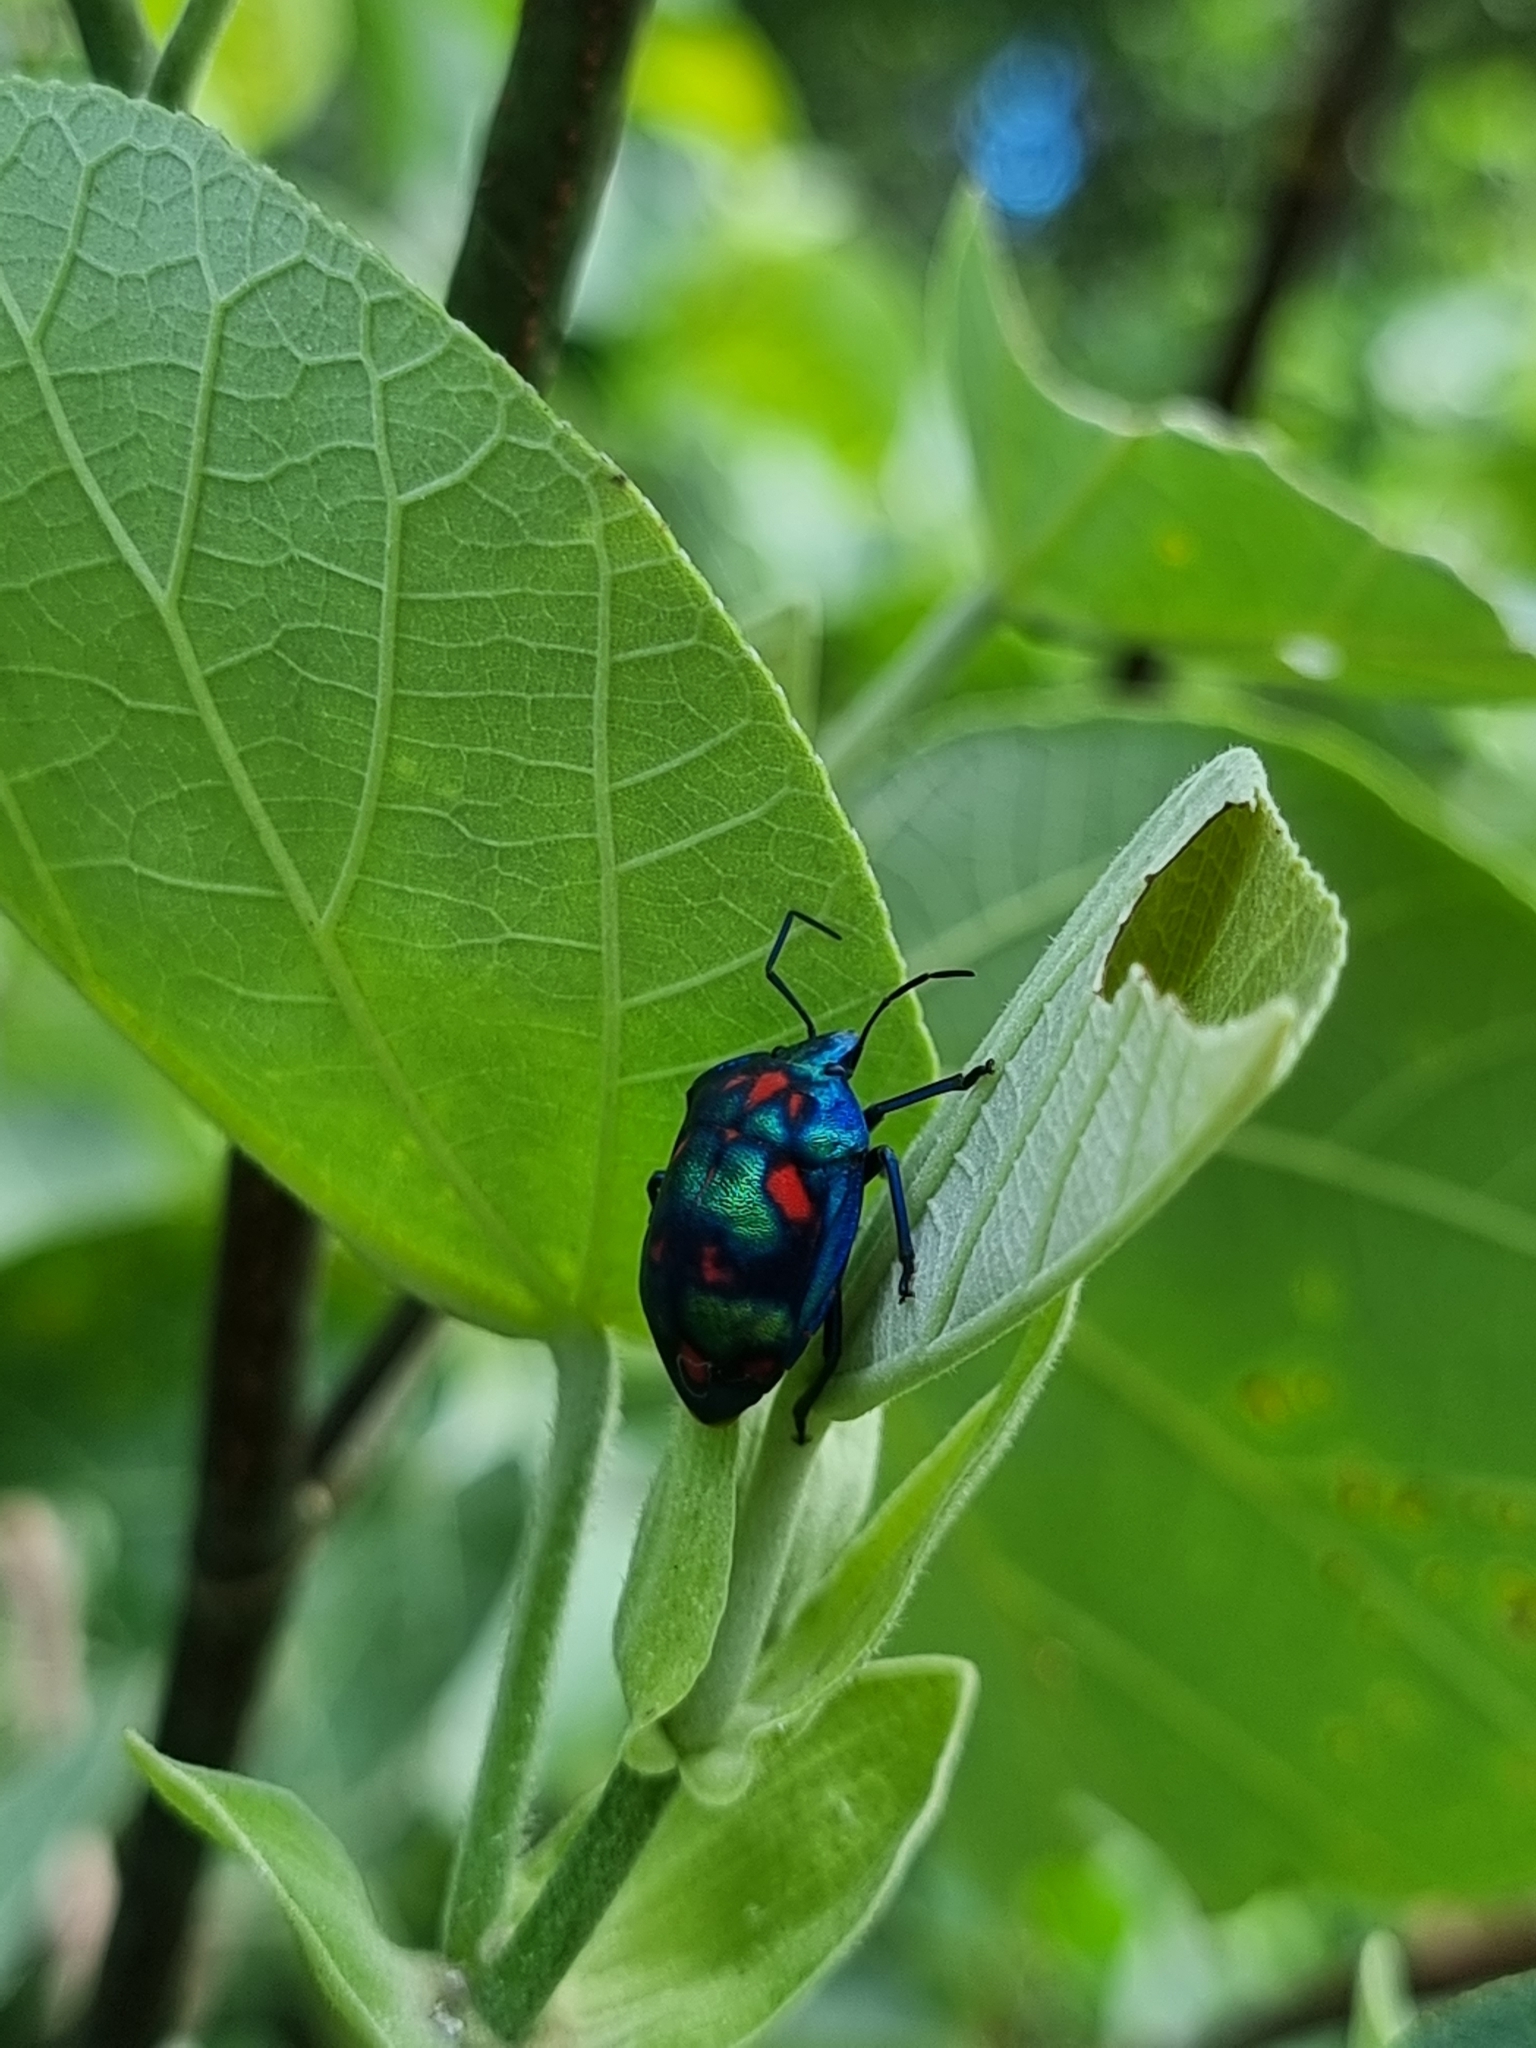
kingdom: Animalia
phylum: Arthropoda
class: Insecta
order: Hemiptera
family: Scutelleridae
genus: Tectocoris
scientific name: Tectocoris diophthalmus
